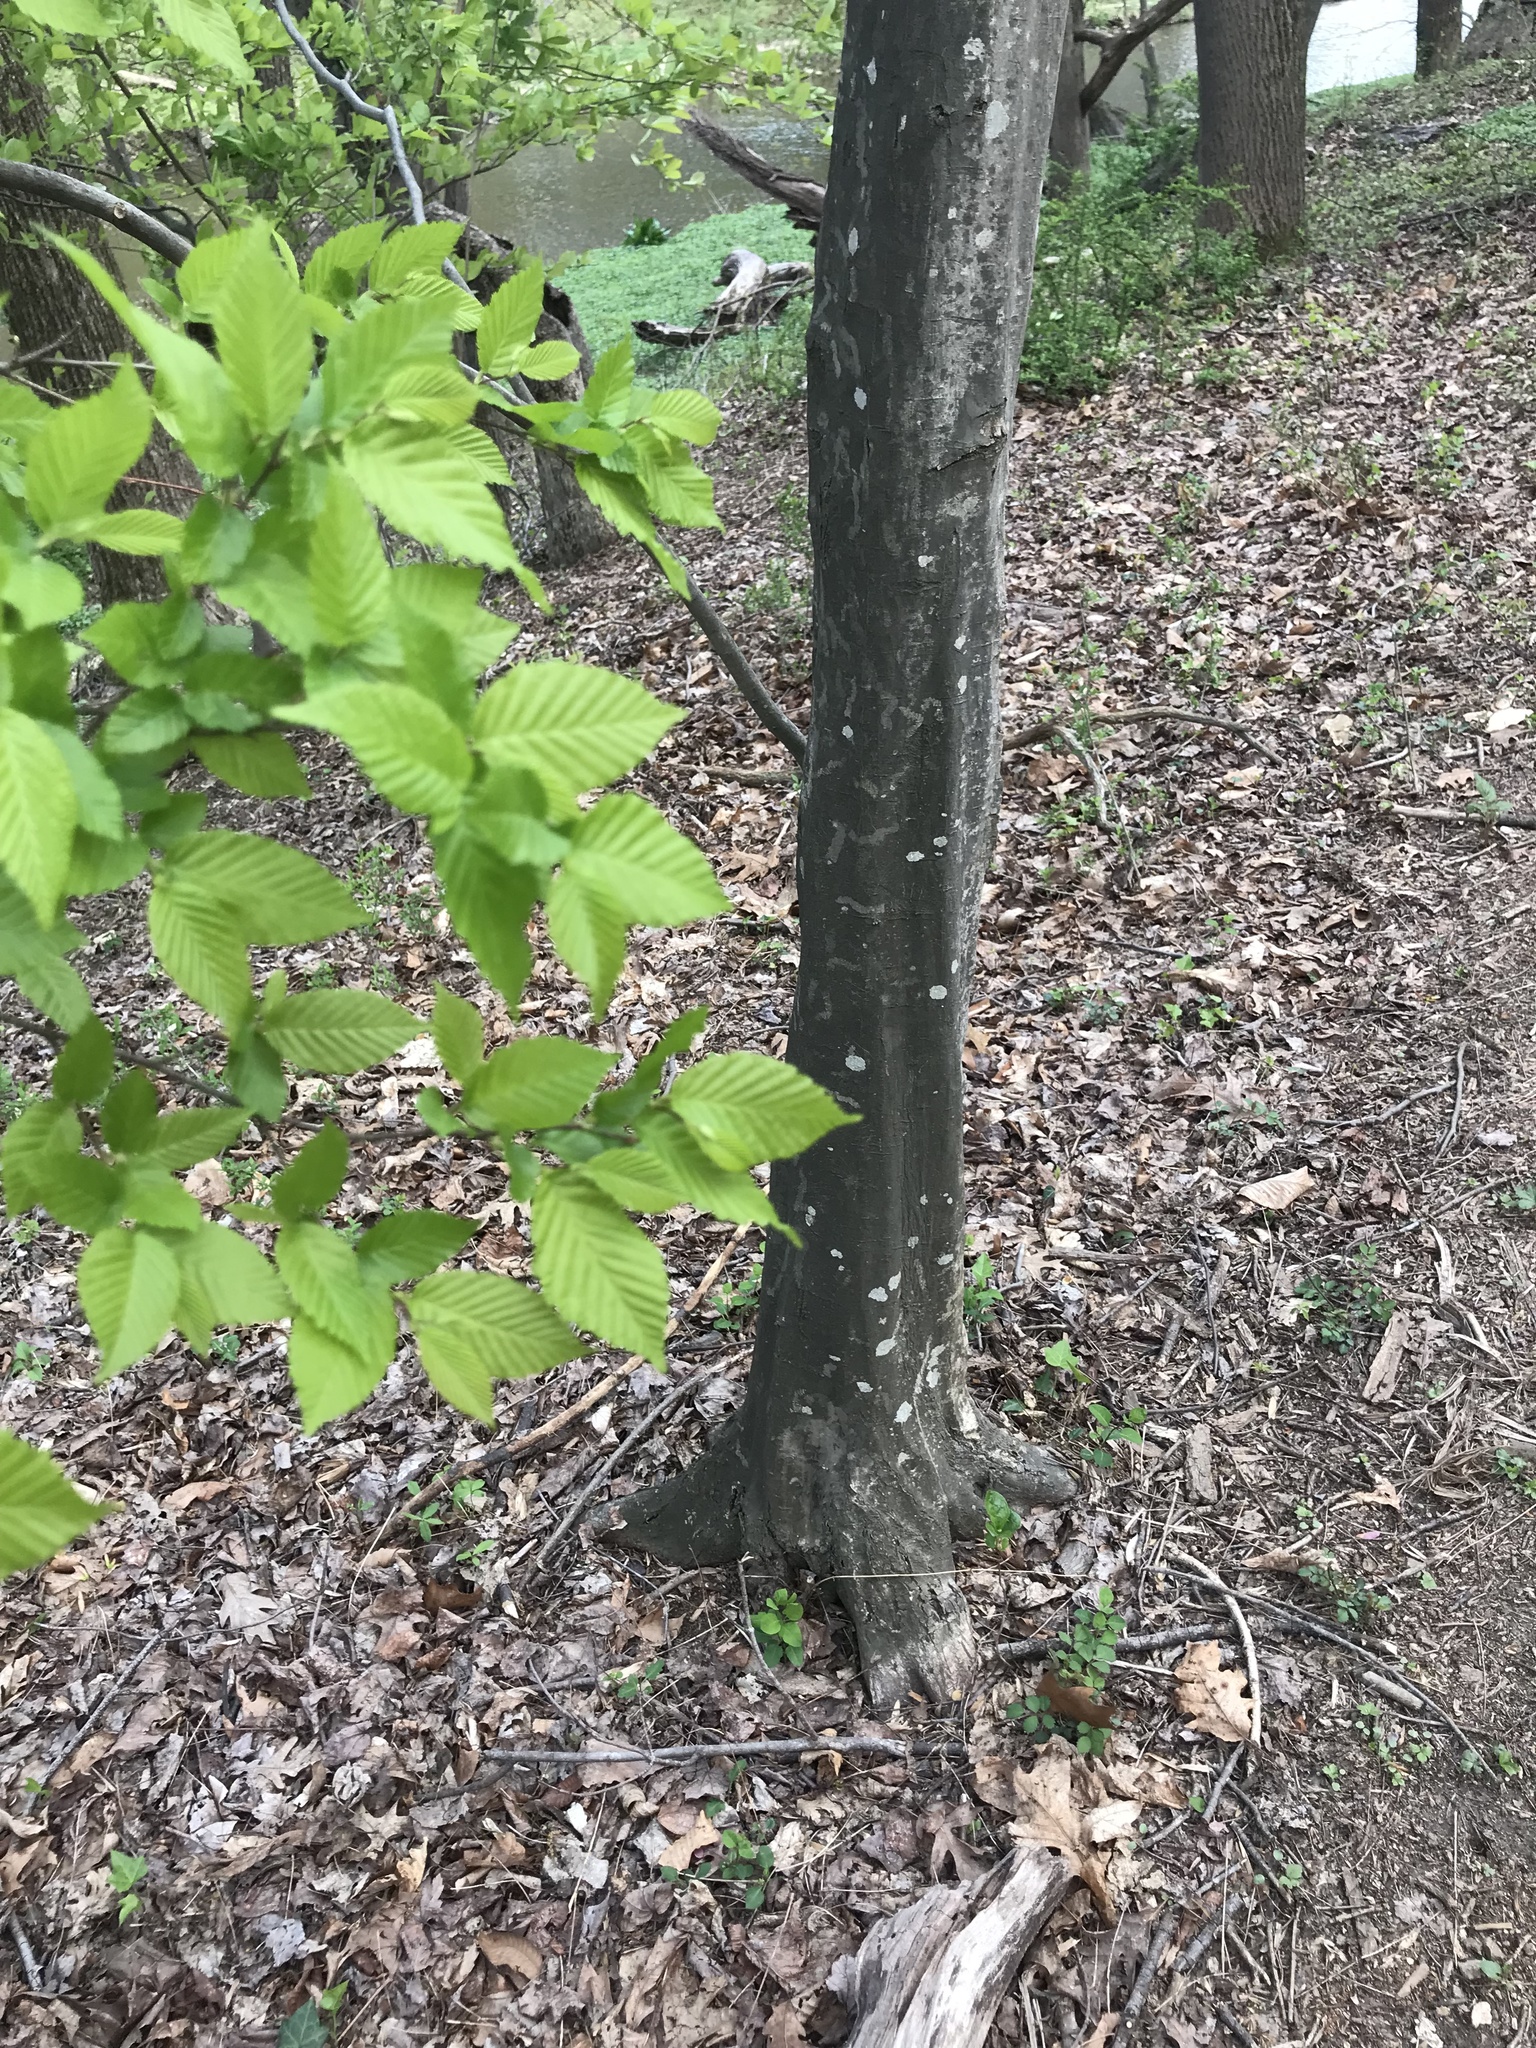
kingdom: Plantae
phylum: Tracheophyta
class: Magnoliopsida
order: Fagales
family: Betulaceae
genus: Carpinus
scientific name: Carpinus caroliniana
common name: American hornbeam
